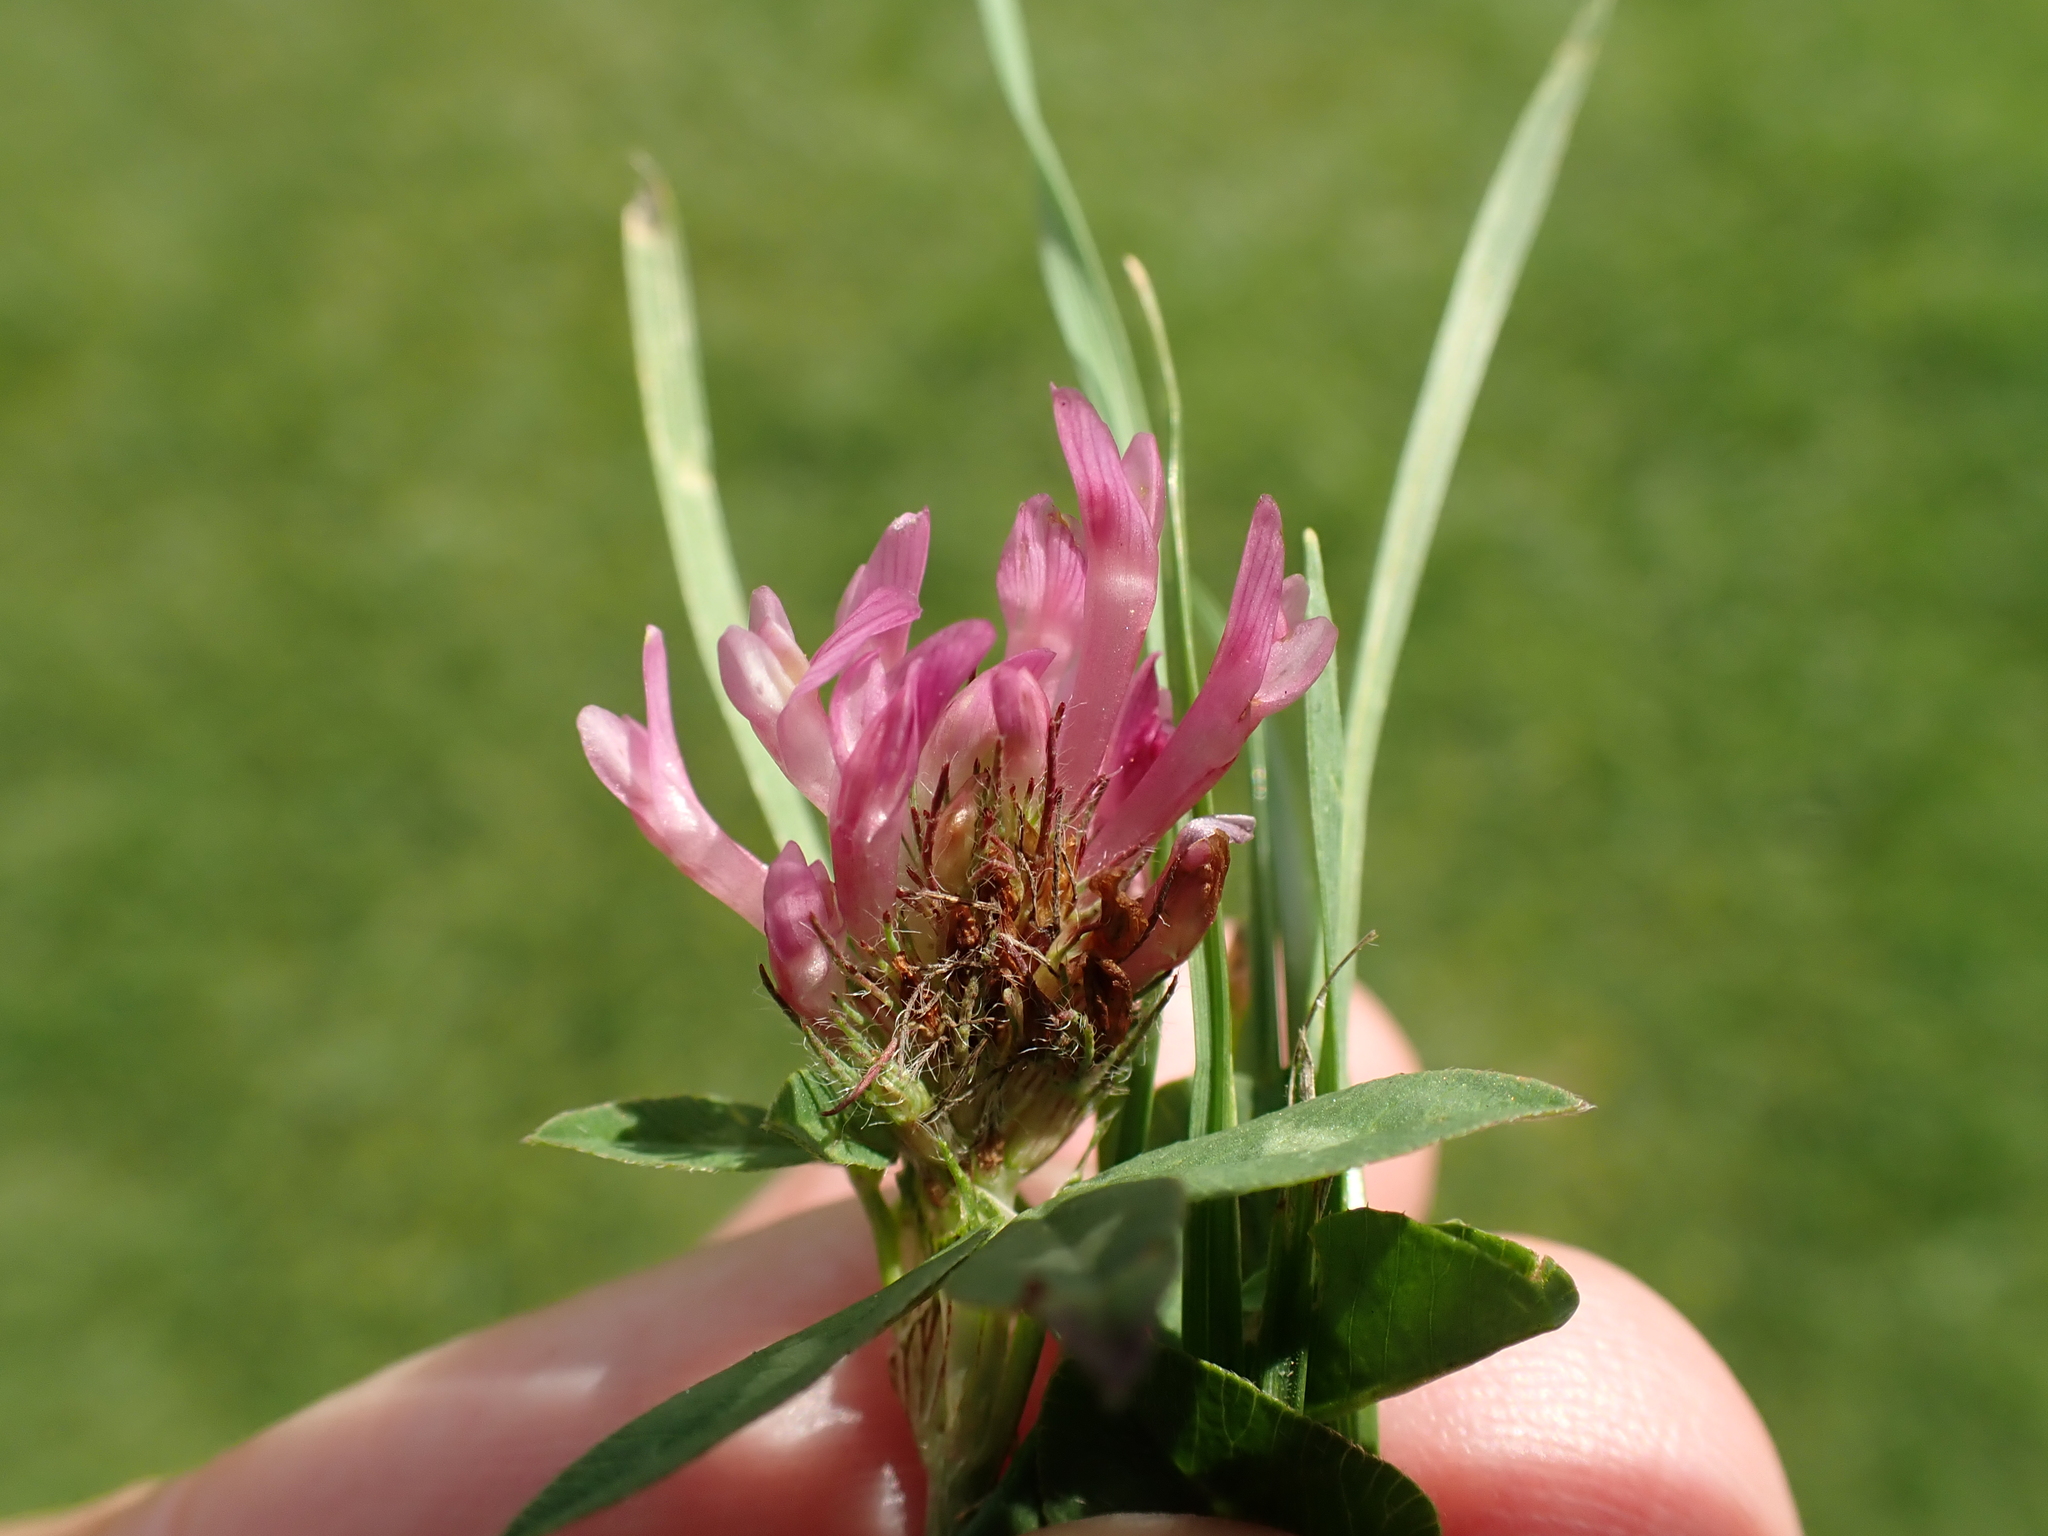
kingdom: Plantae
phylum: Tracheophyta
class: Magnoliopsida
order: Fabales
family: Fabaceae
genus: Trifolium
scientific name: Trifolium pratense
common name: Red clover
